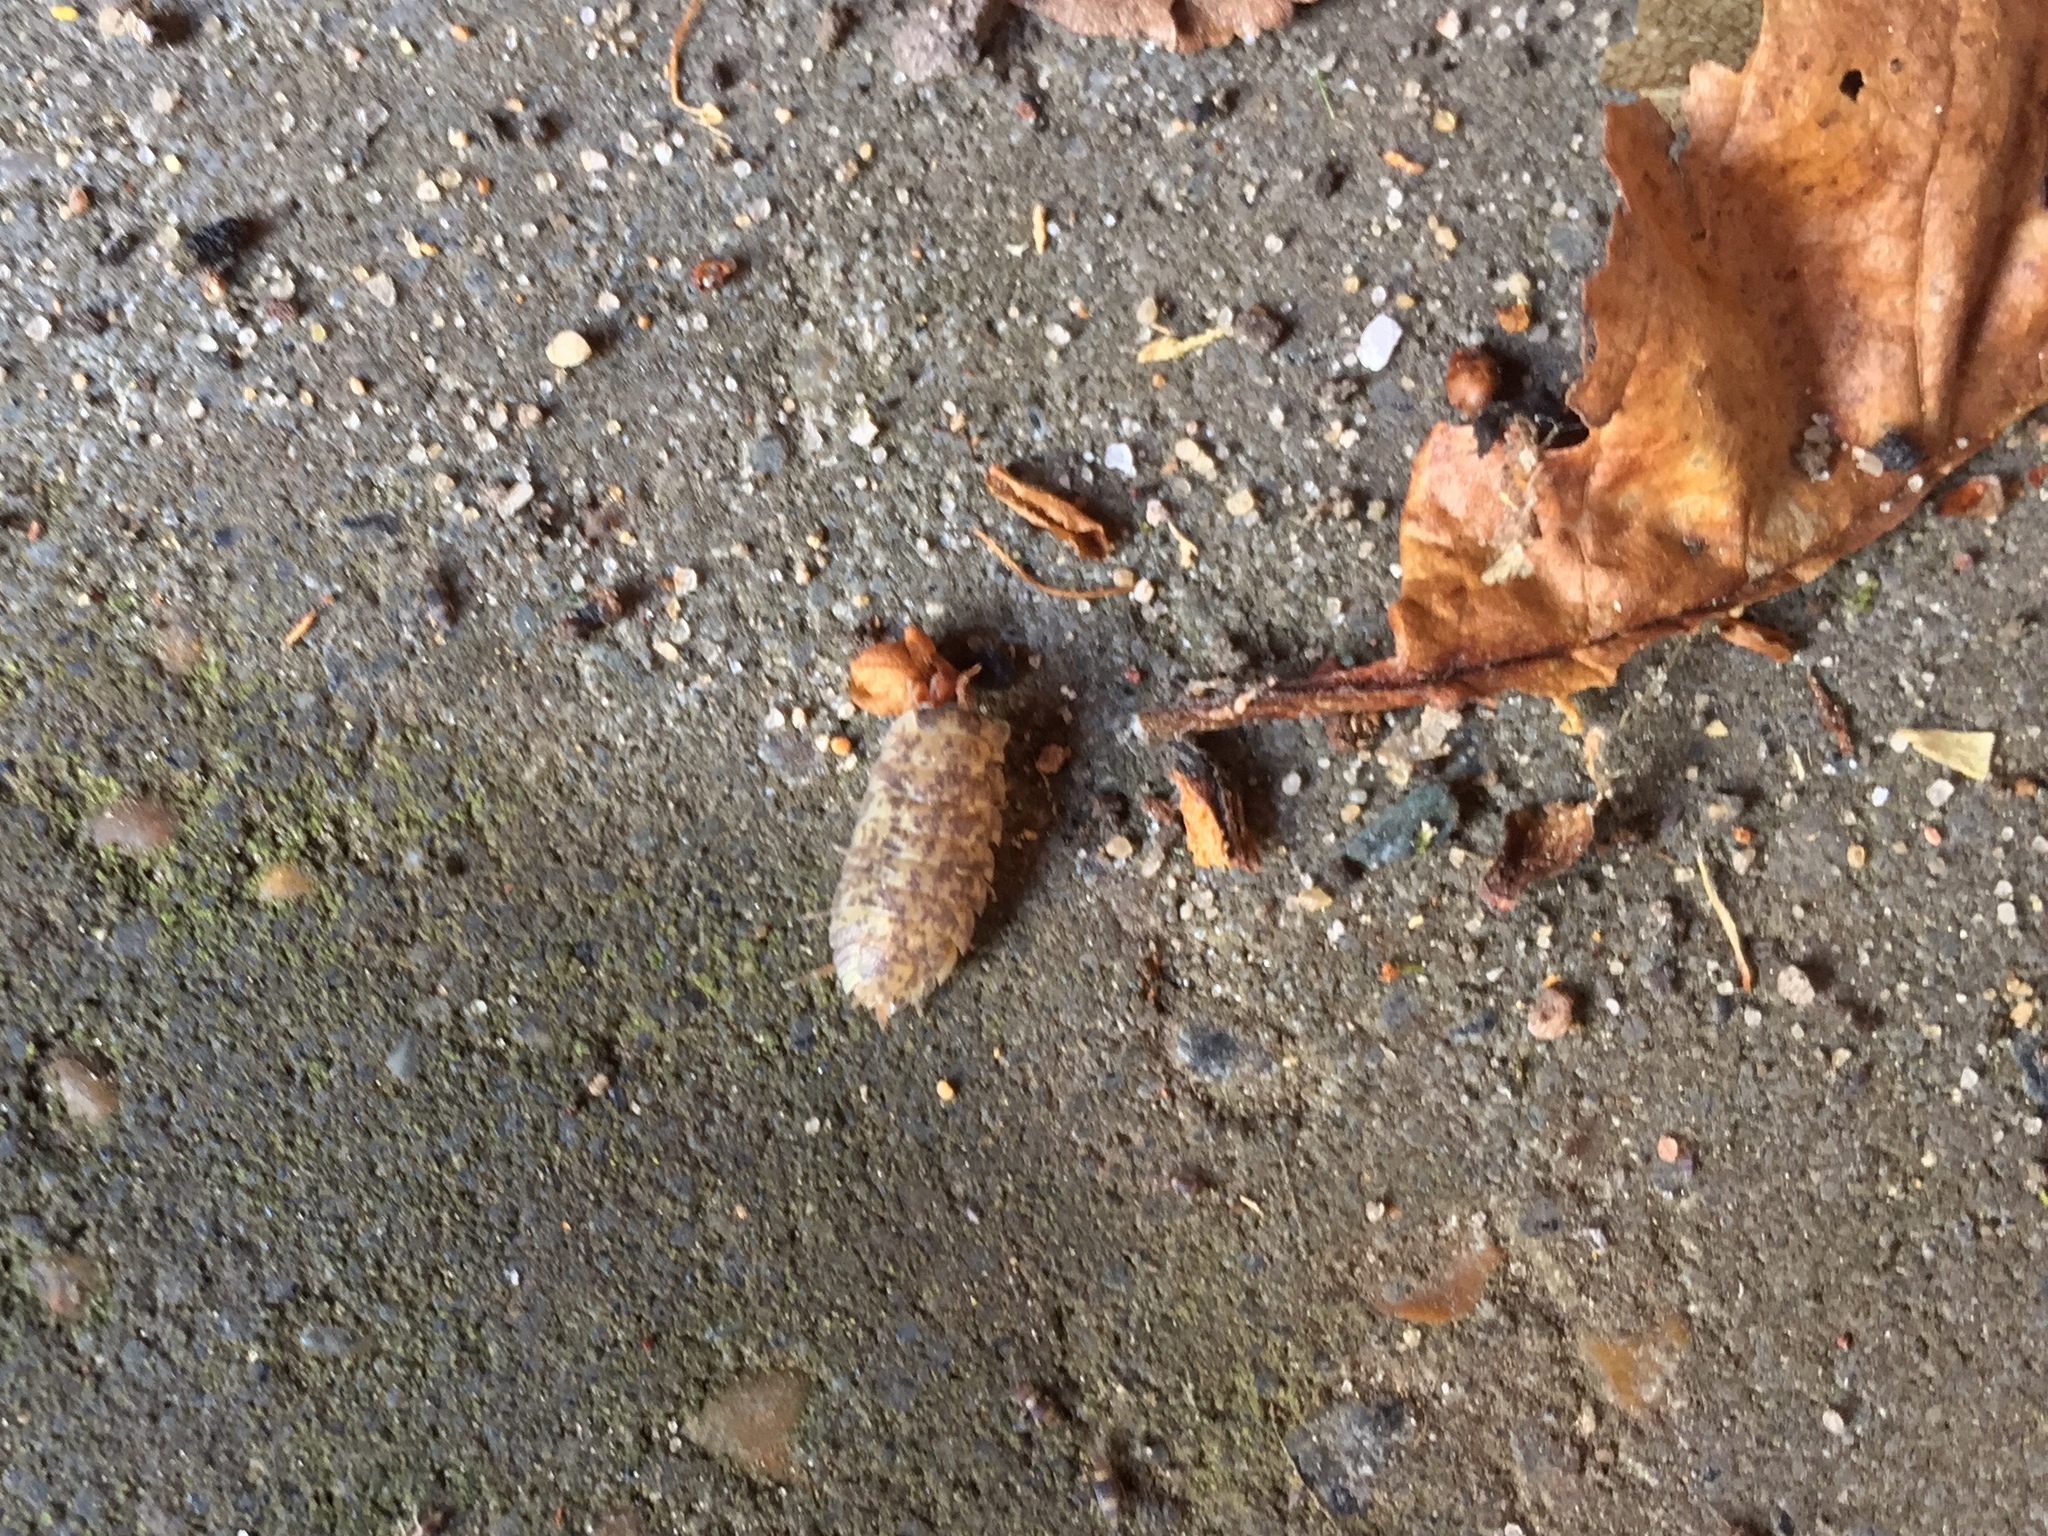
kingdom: Animalia
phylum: Arthropoda
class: Malacostraca
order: Isopoda
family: Porcellionidae
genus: Porcellio
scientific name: Porcellio scaber
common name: Common rough woodlouse
